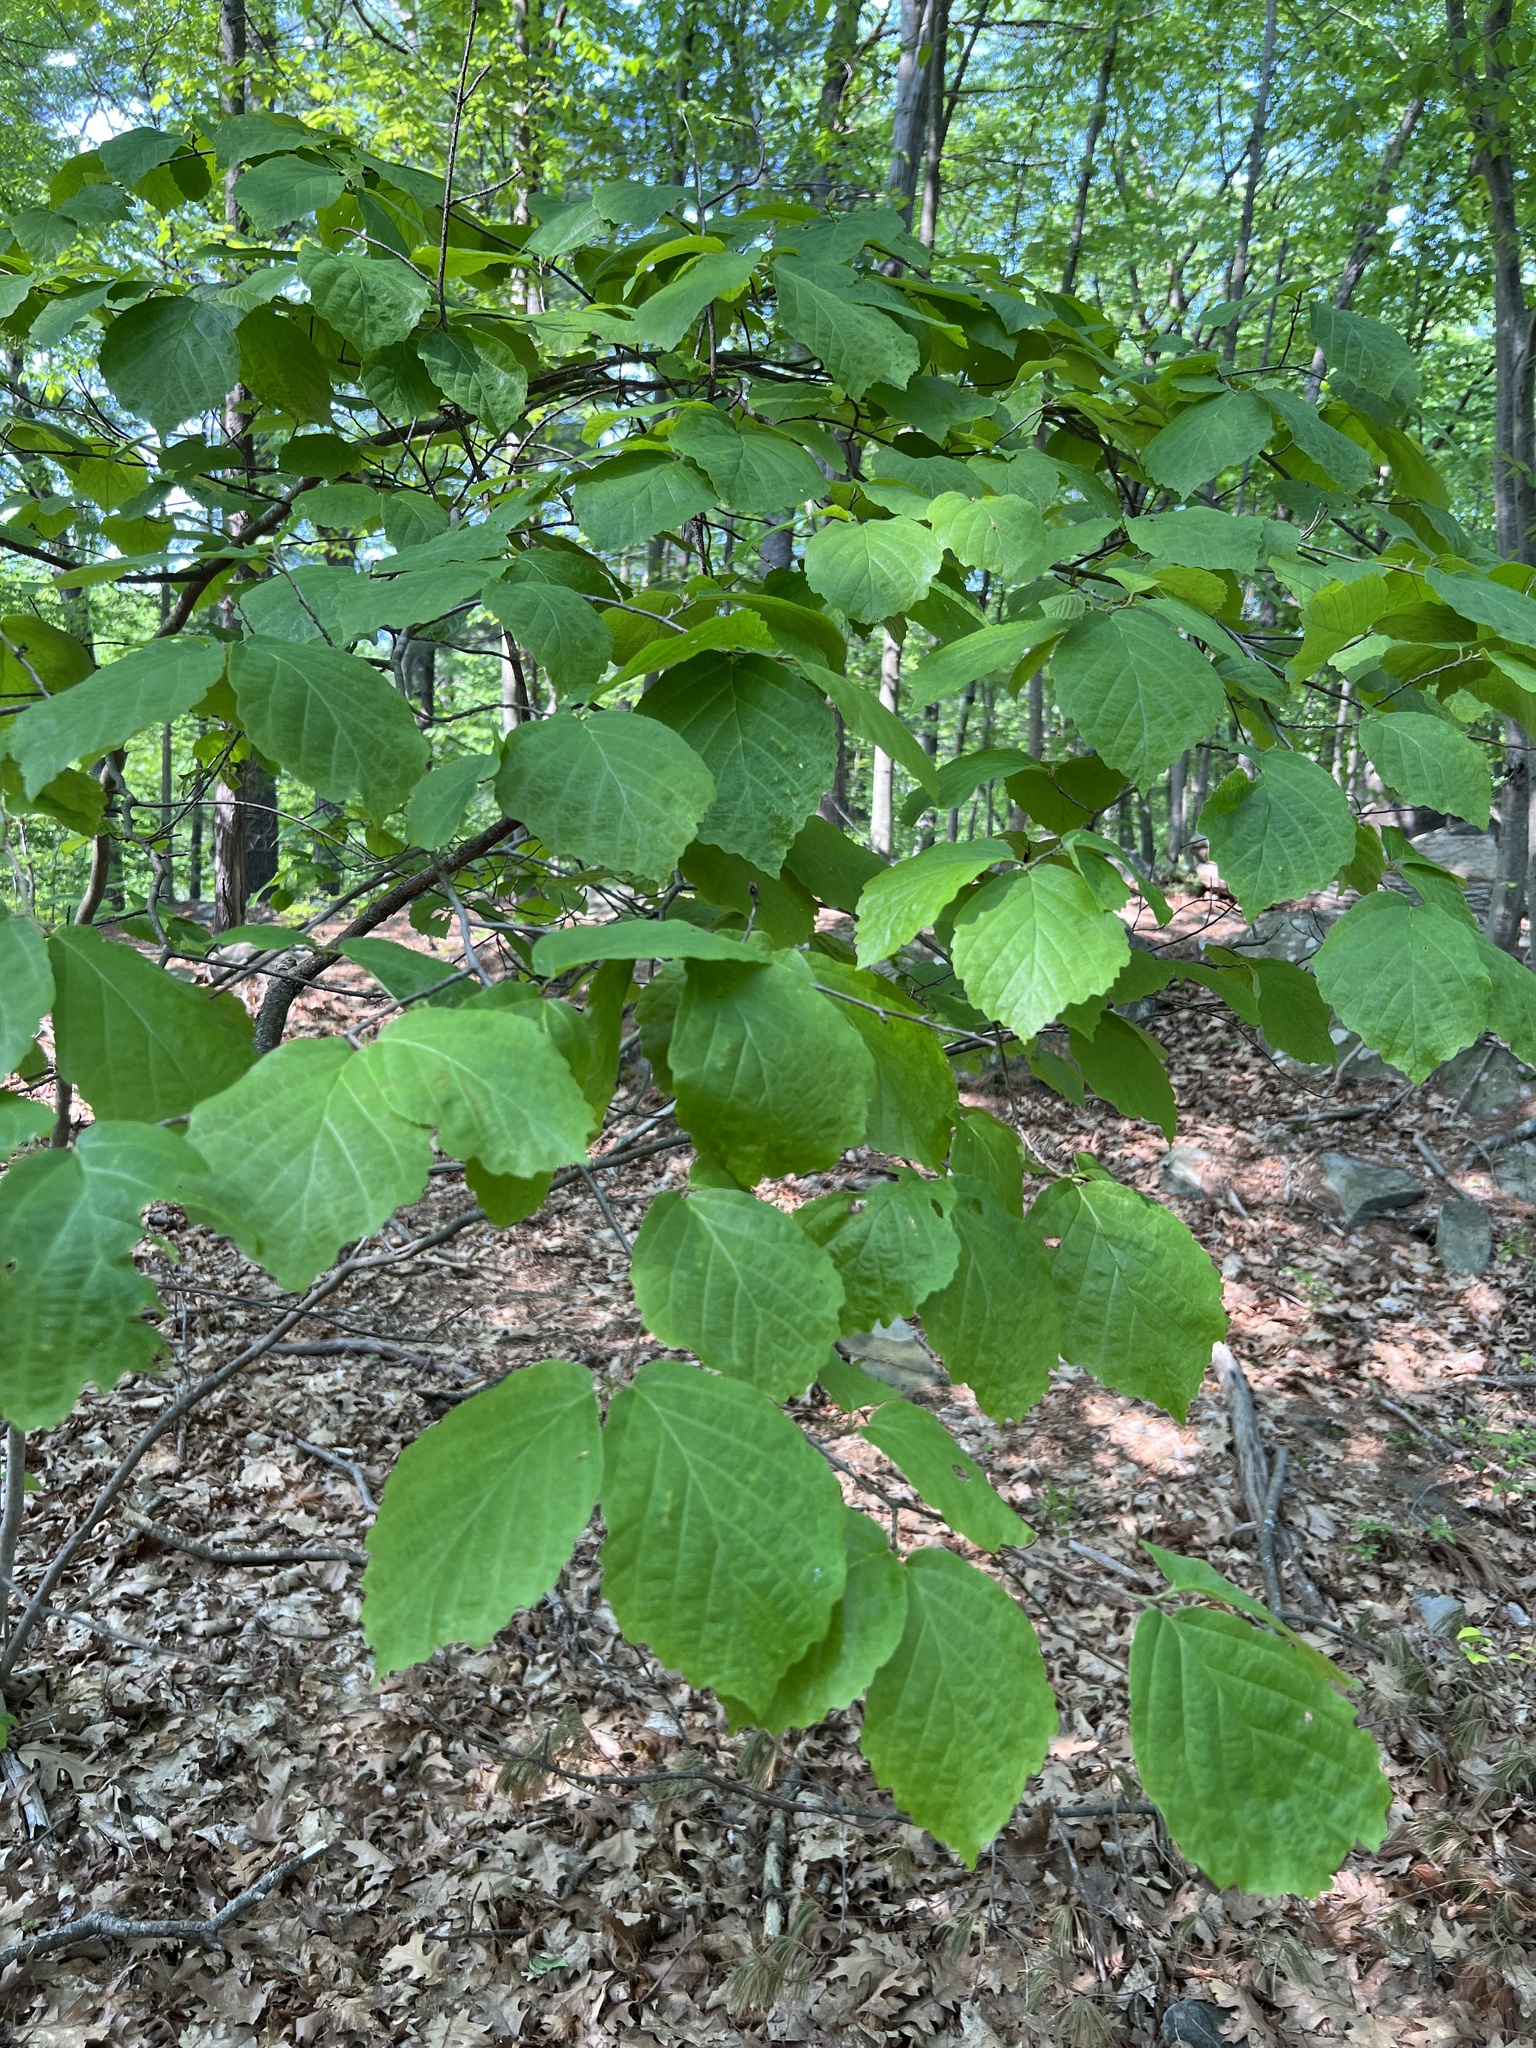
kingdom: Plantae
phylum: Tracheophyta
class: Magnoliopsida
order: Saxifragales
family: Hamamelidaceae
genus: Hamamelis
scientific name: Hamamelis virginiana
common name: Witch-hazel
